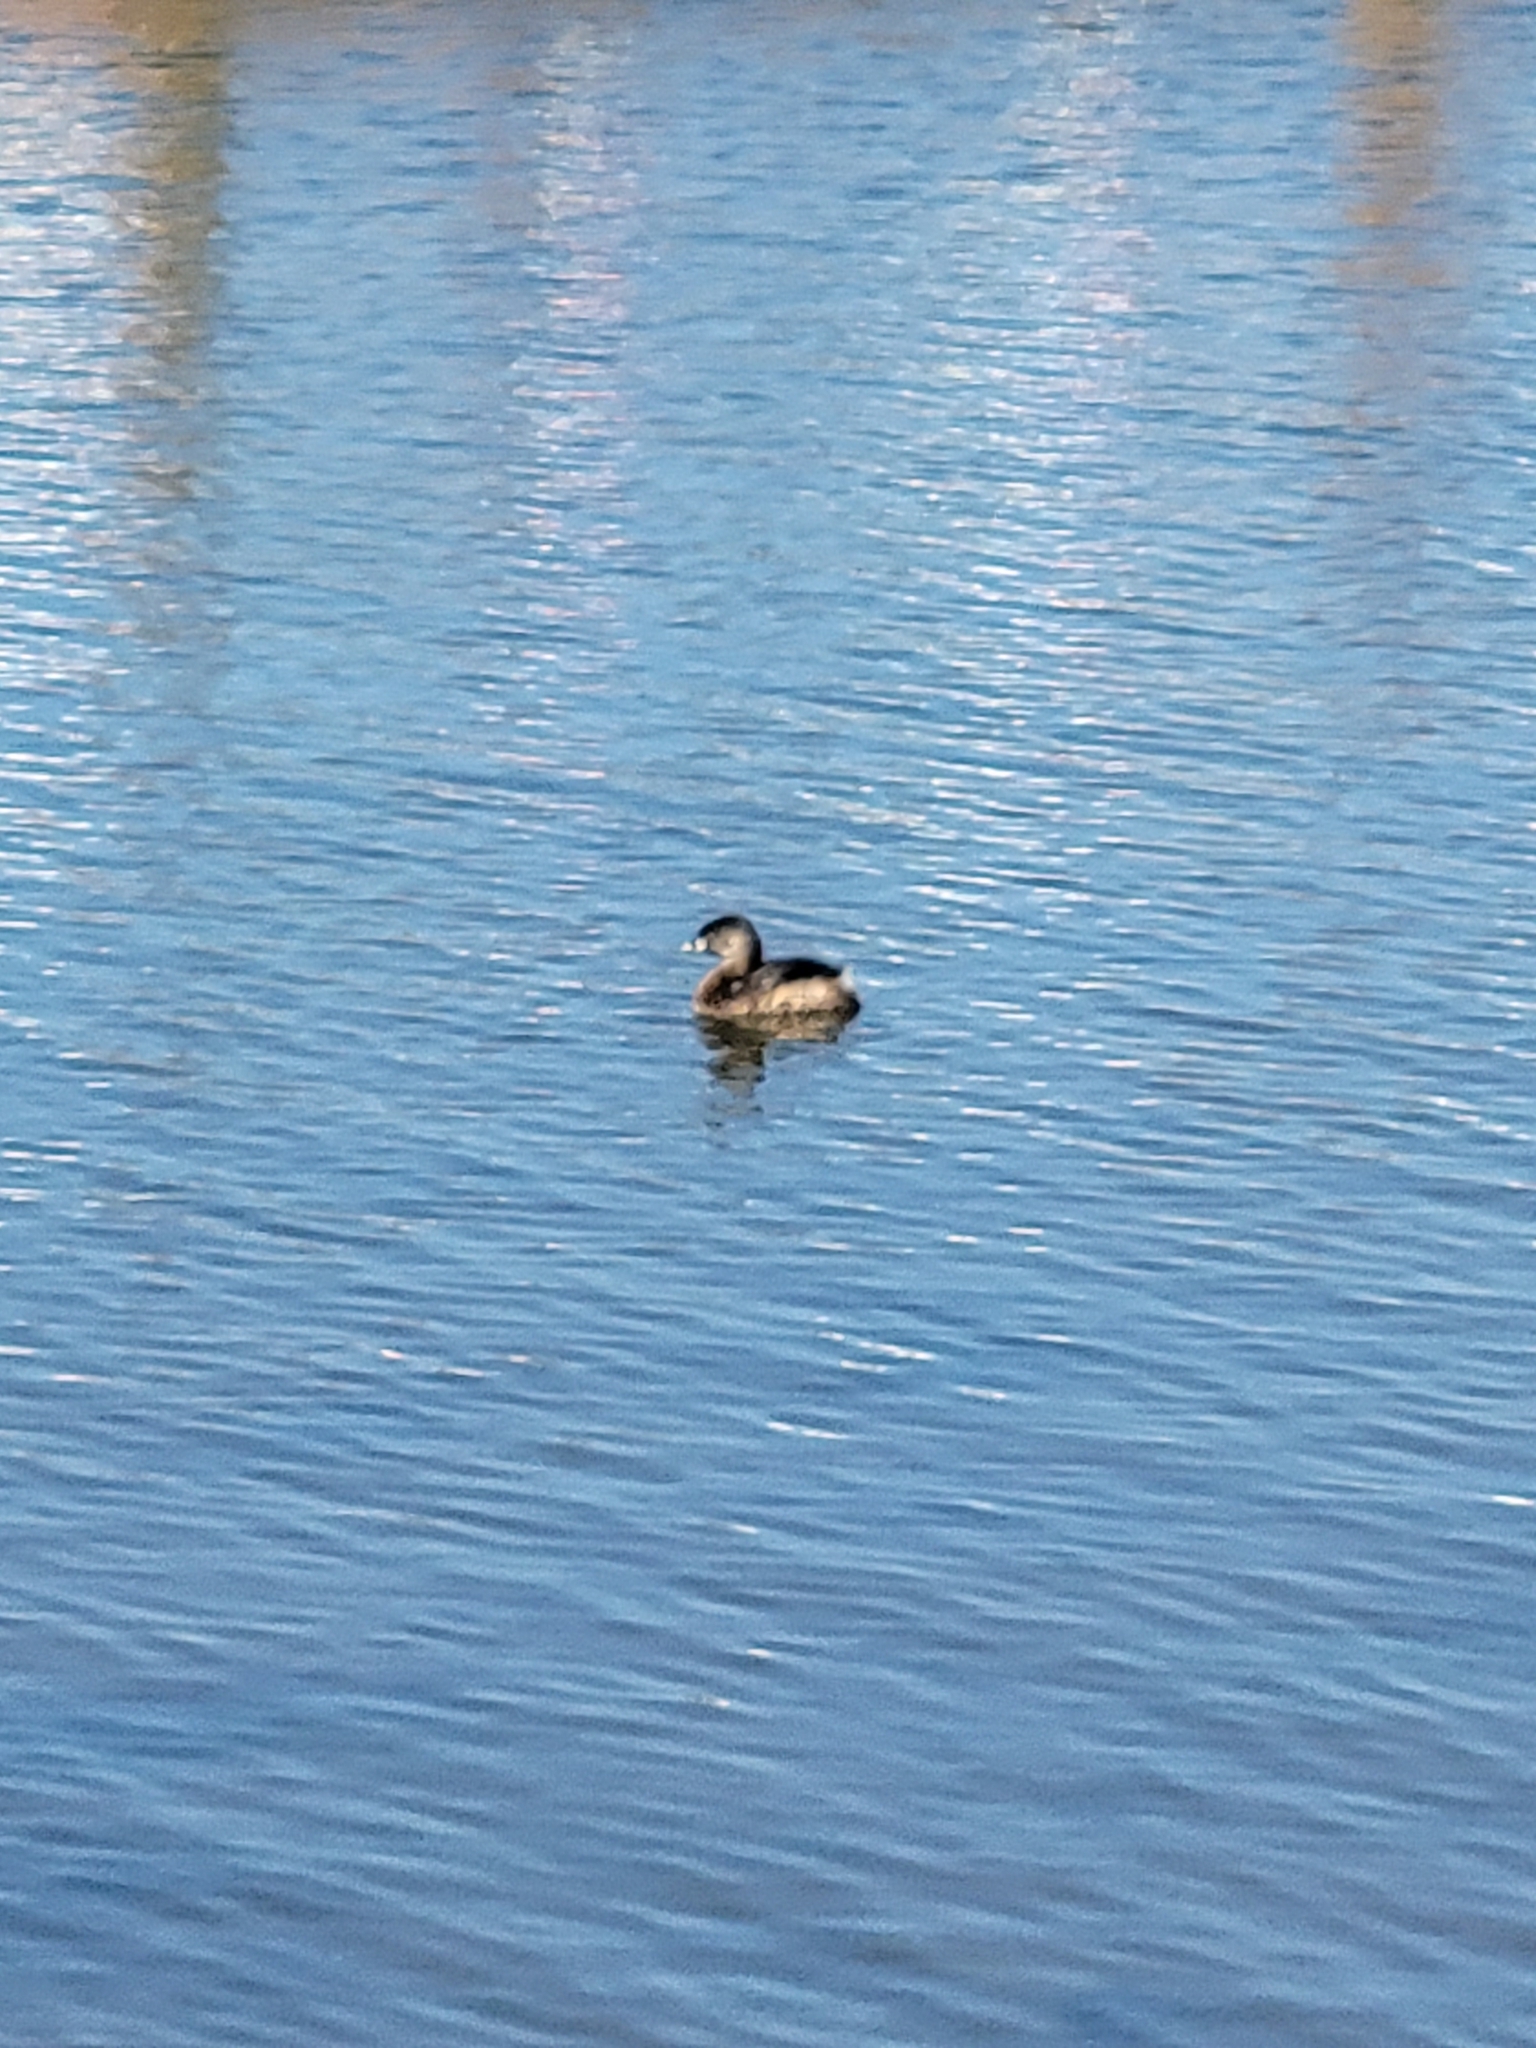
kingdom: Animalia
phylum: Chordata
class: Aves
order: Podicipediformes
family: Podicipedidae
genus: Podilymbus
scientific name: Podilymbus podiceps
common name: Pied-billed grebe
